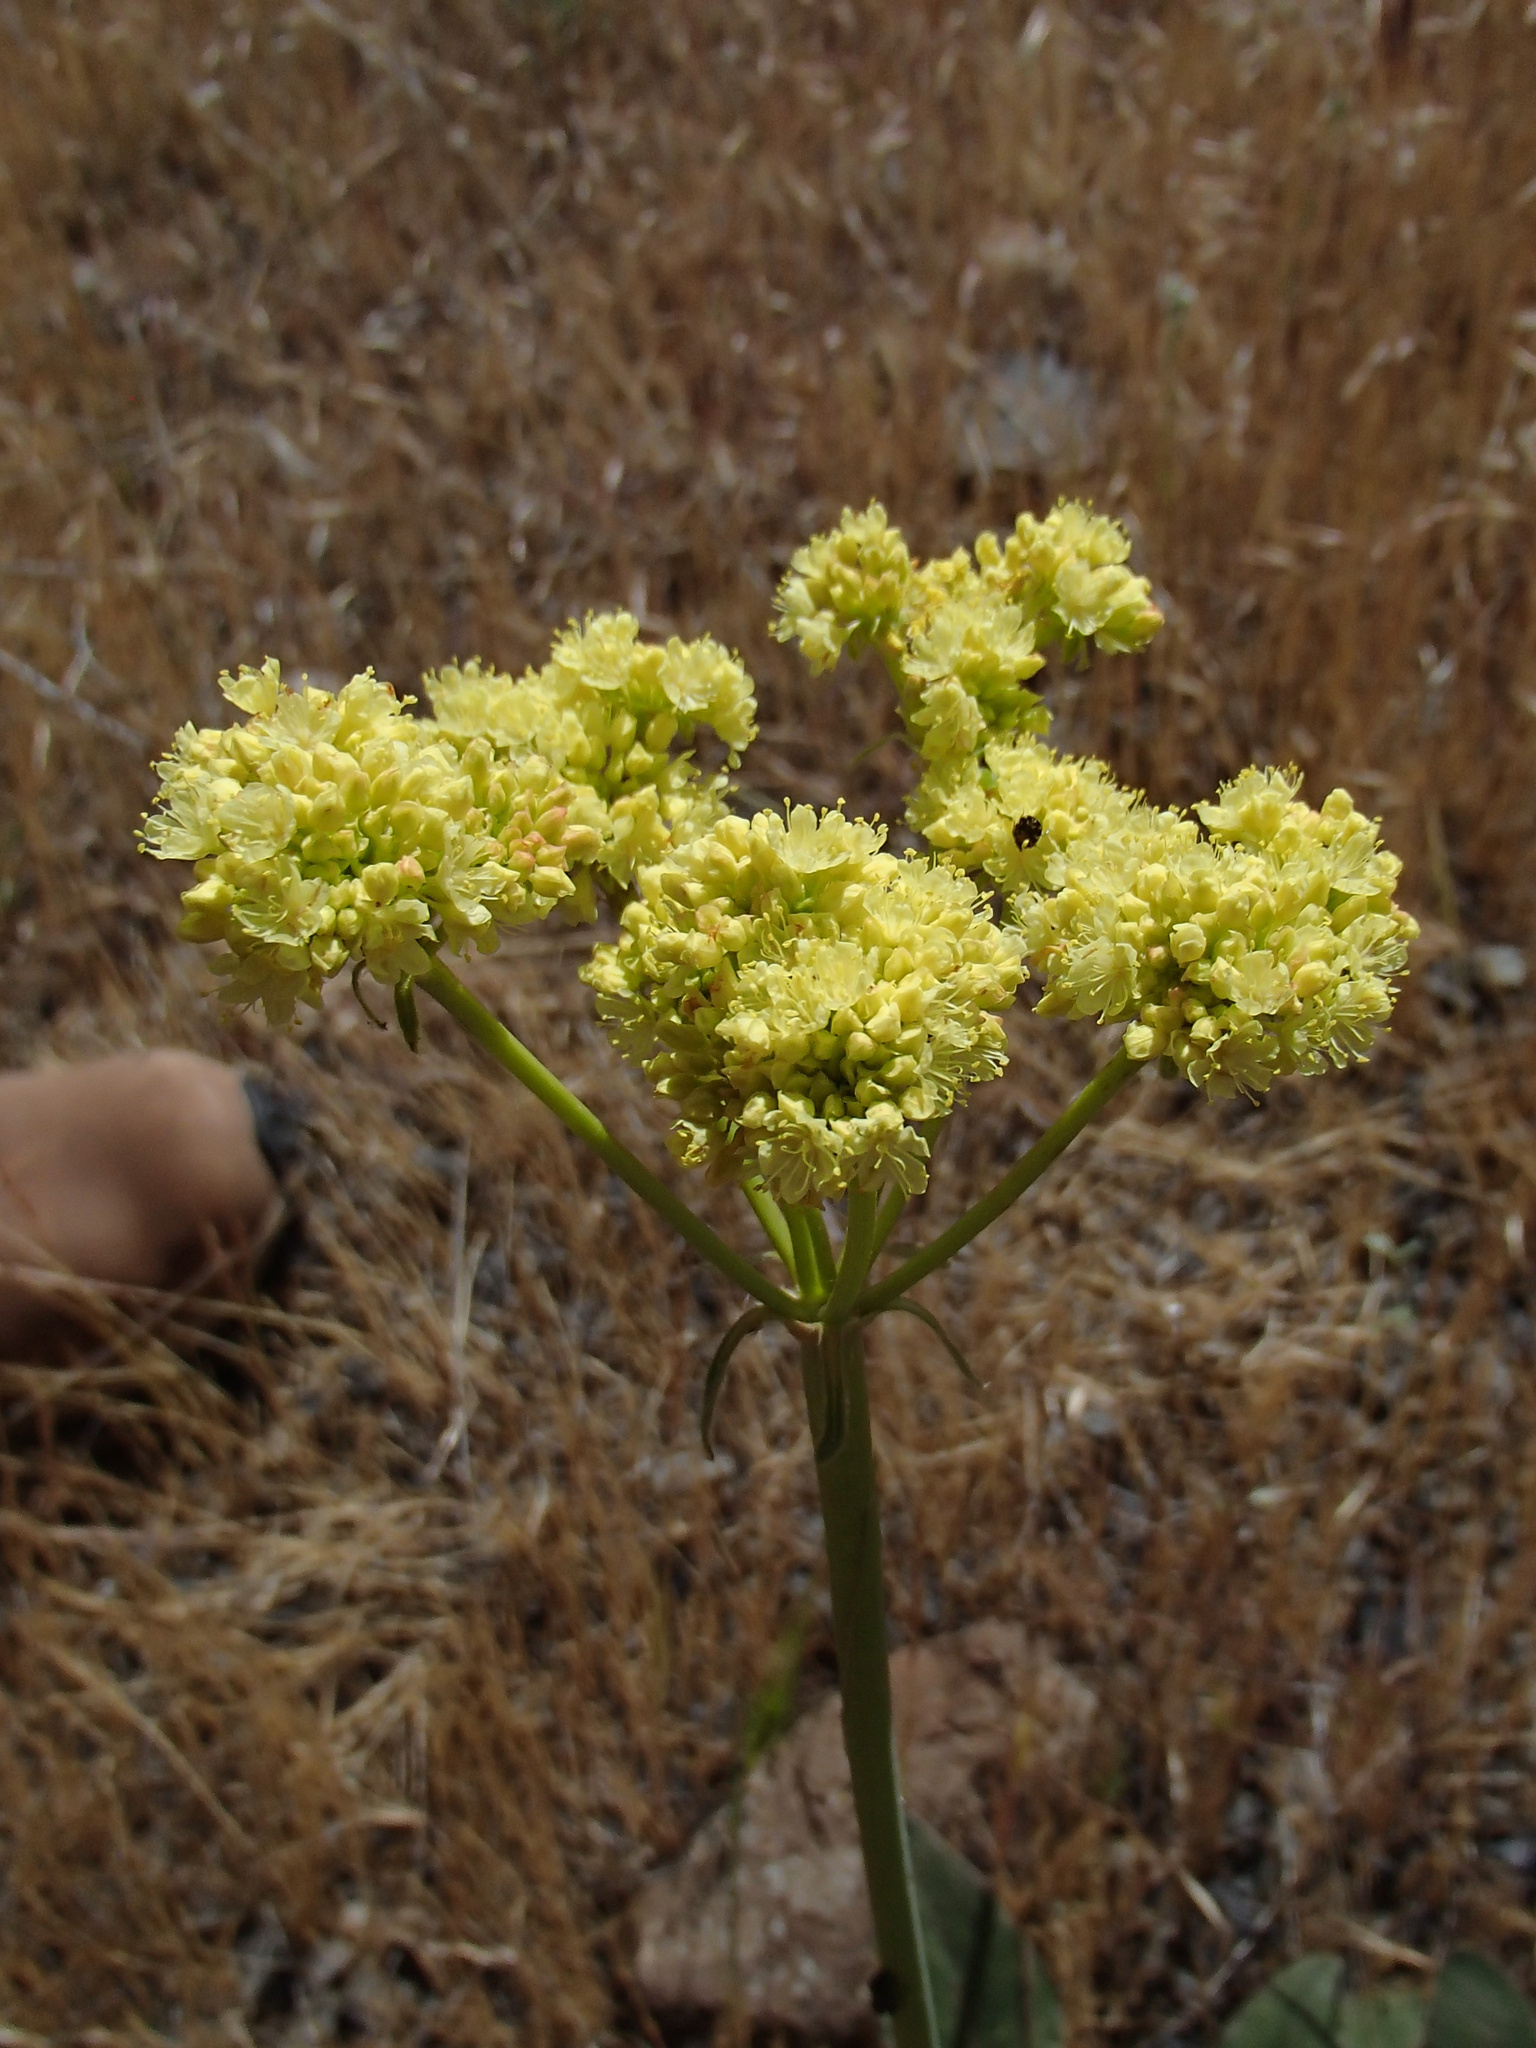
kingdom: Plantae
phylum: Tracheophyta
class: Magnoliopsida
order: Caryophyllales
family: Polygonaceae
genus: Eriogonum
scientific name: Eriogonum compositum
